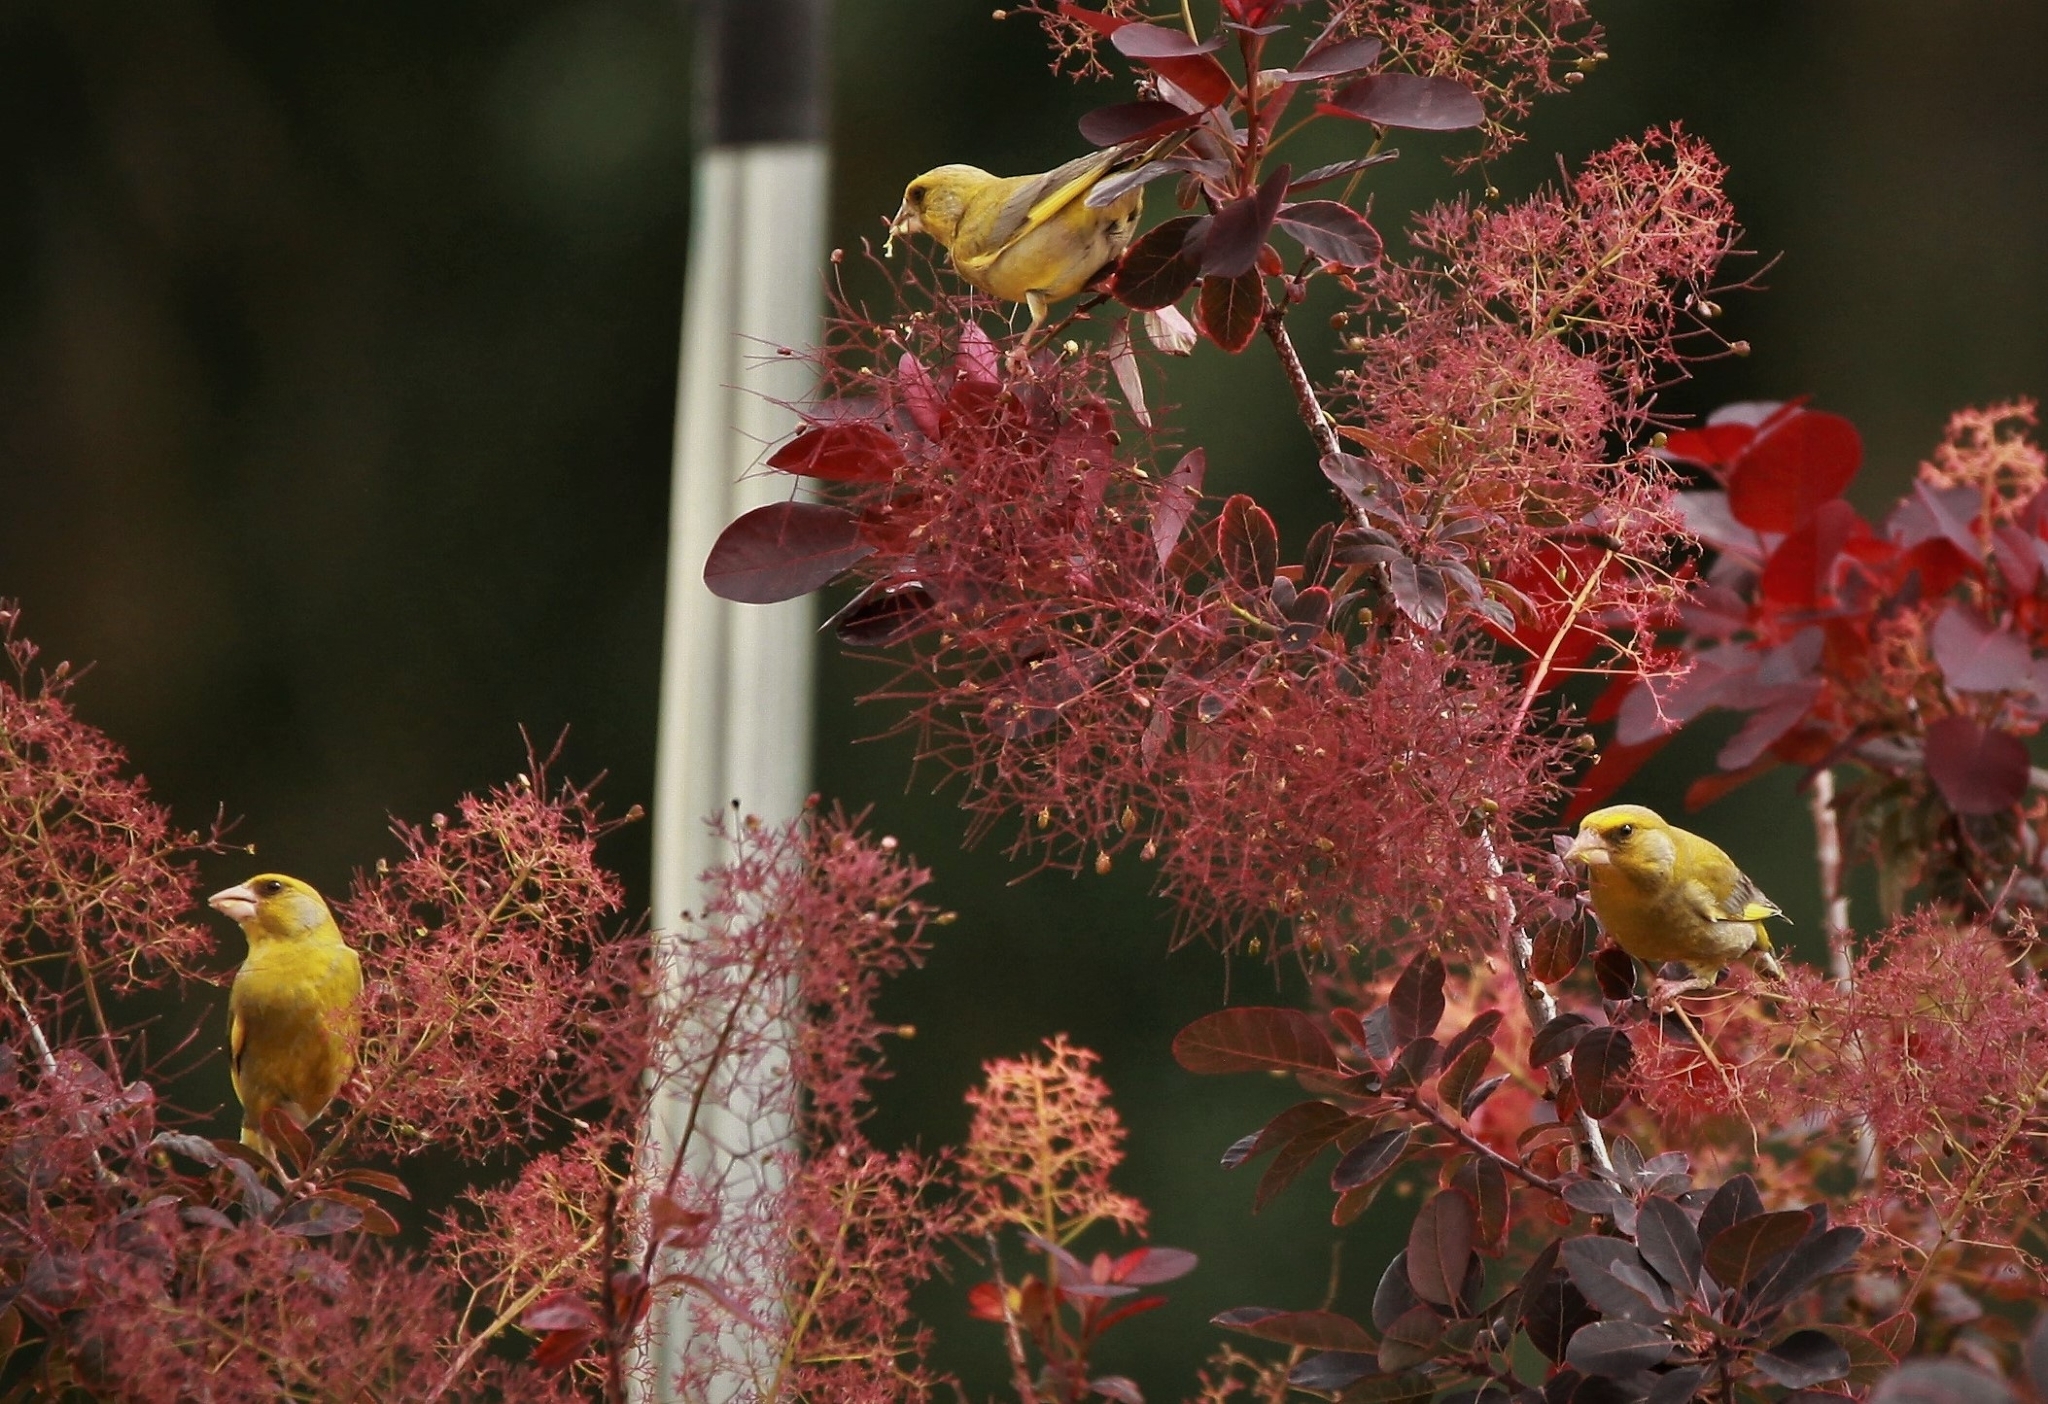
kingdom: Plantae
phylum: Tracheophyta
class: Liliopsida
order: Poales
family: Poaceae
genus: Chloris
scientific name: Chloris chloris
